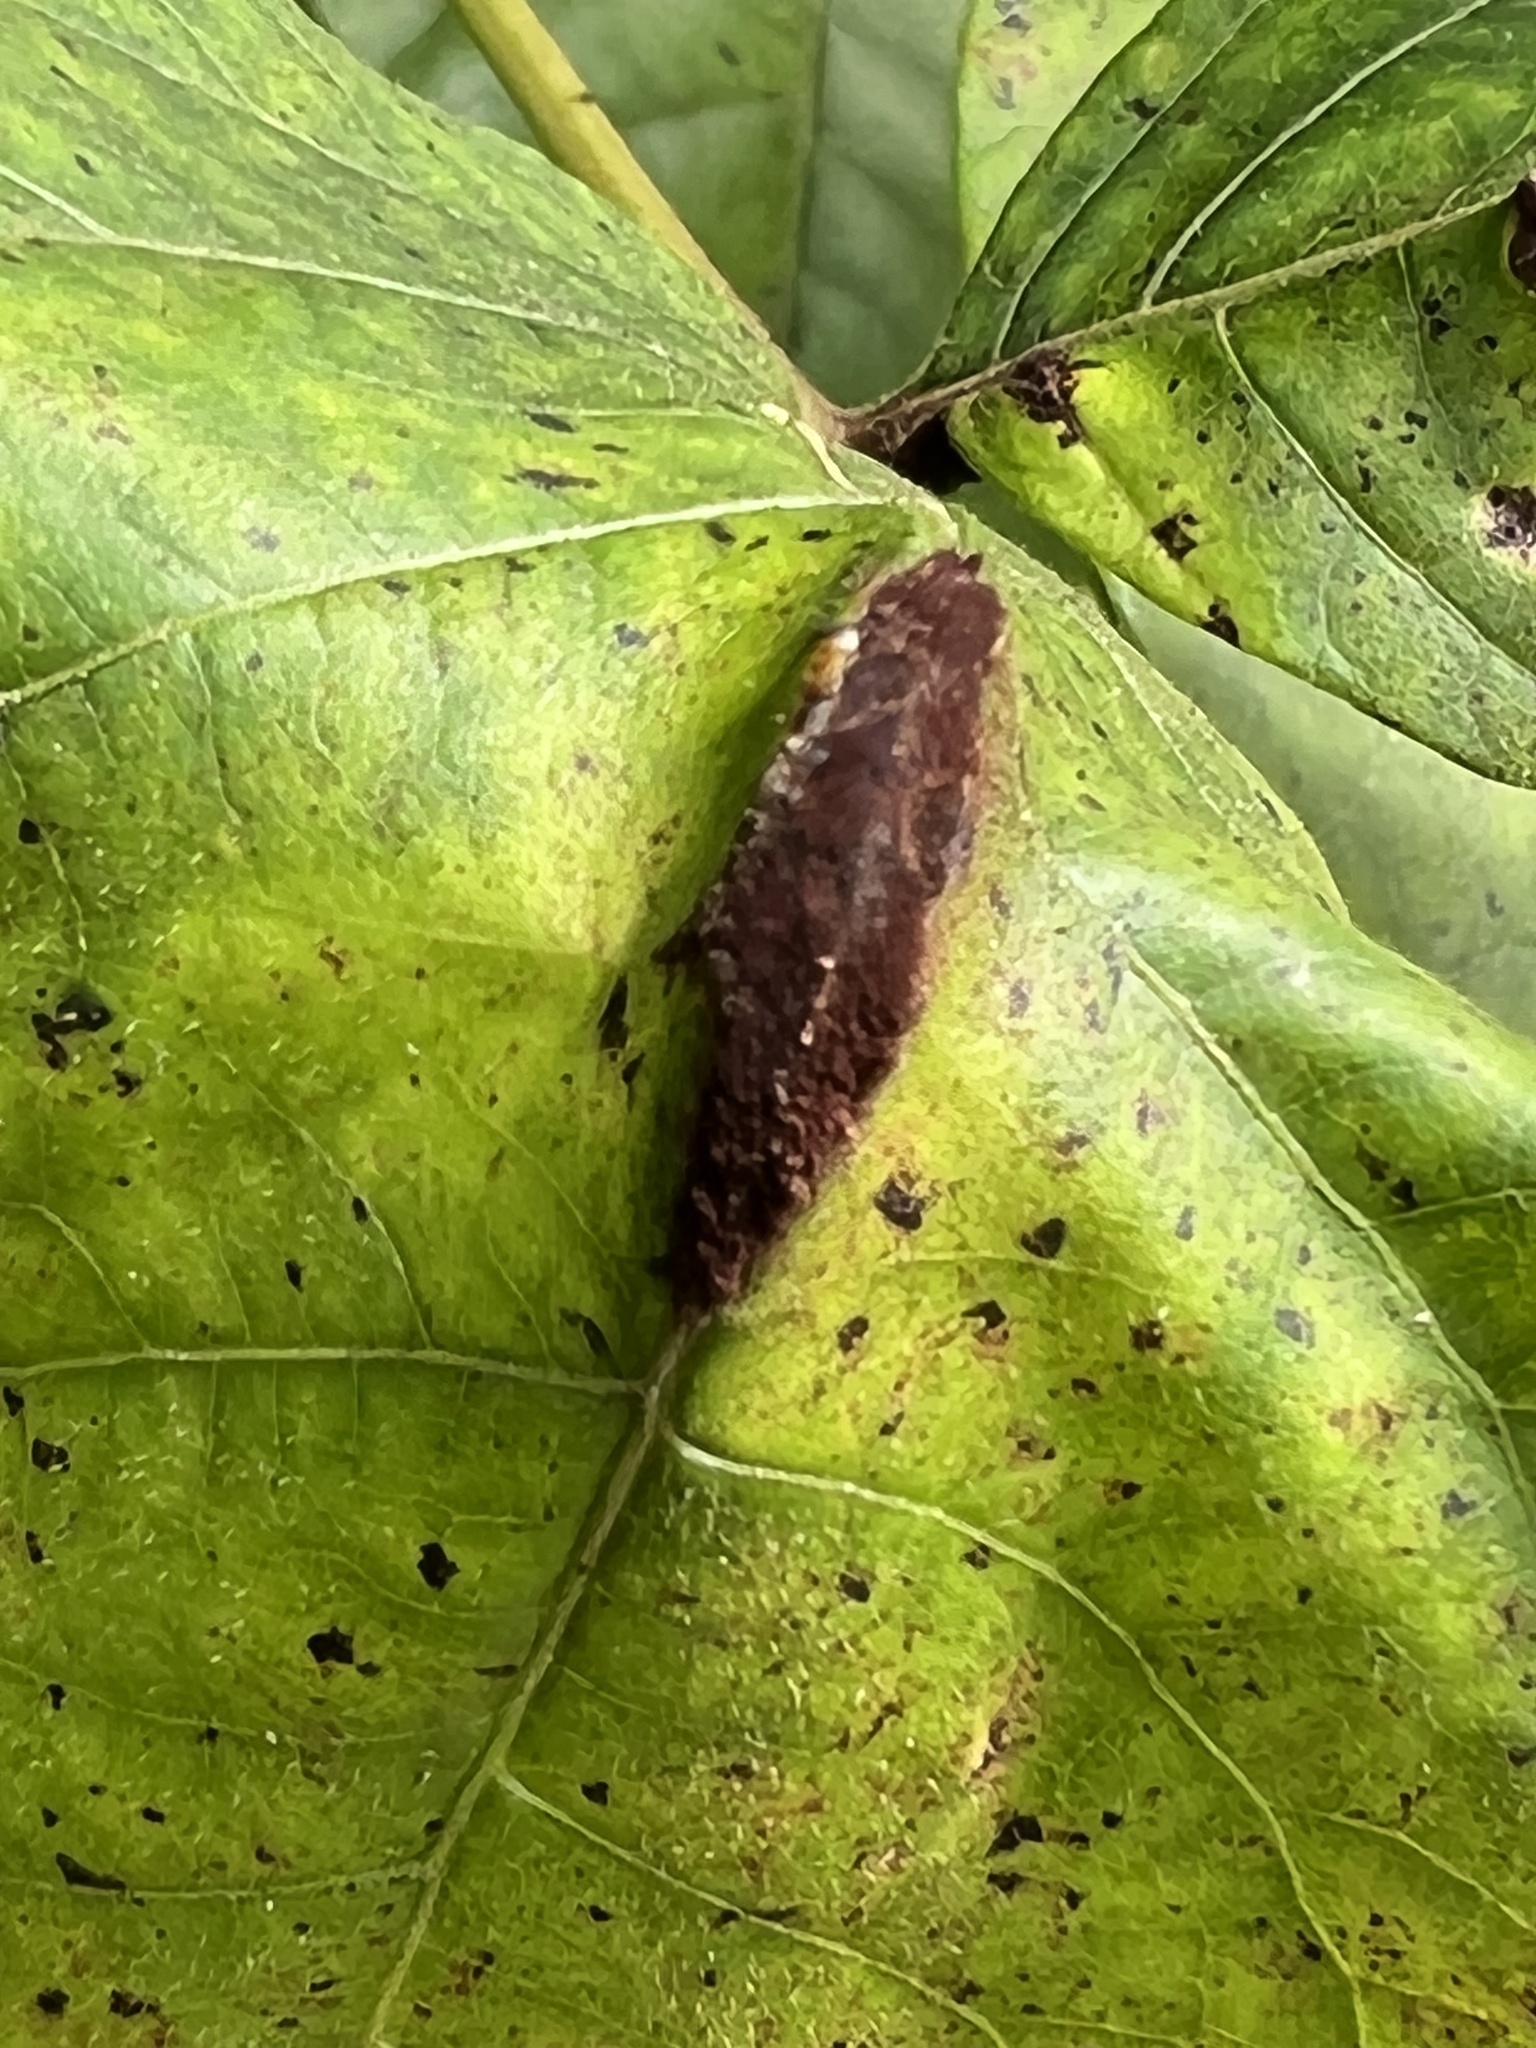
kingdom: Fungi
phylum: Basidiomycota
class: Pucciniomycetes
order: Pucciniales
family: Pileolariaceae
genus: Pileolaria
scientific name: Pileolaria brevipes
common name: Poison ivy rust
